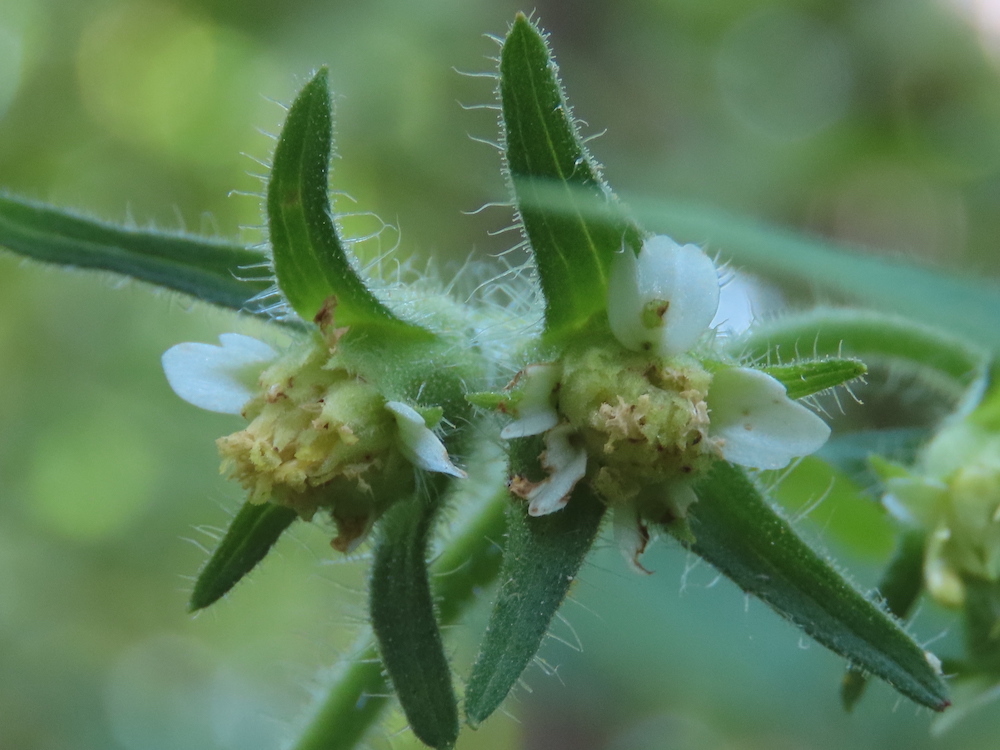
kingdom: Plantae
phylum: Tracheophyta
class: Magnoliopsida
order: Asterales
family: Asteraceae
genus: Polymnia
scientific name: Polymnia canadensis
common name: Pale-flowered leafcup
